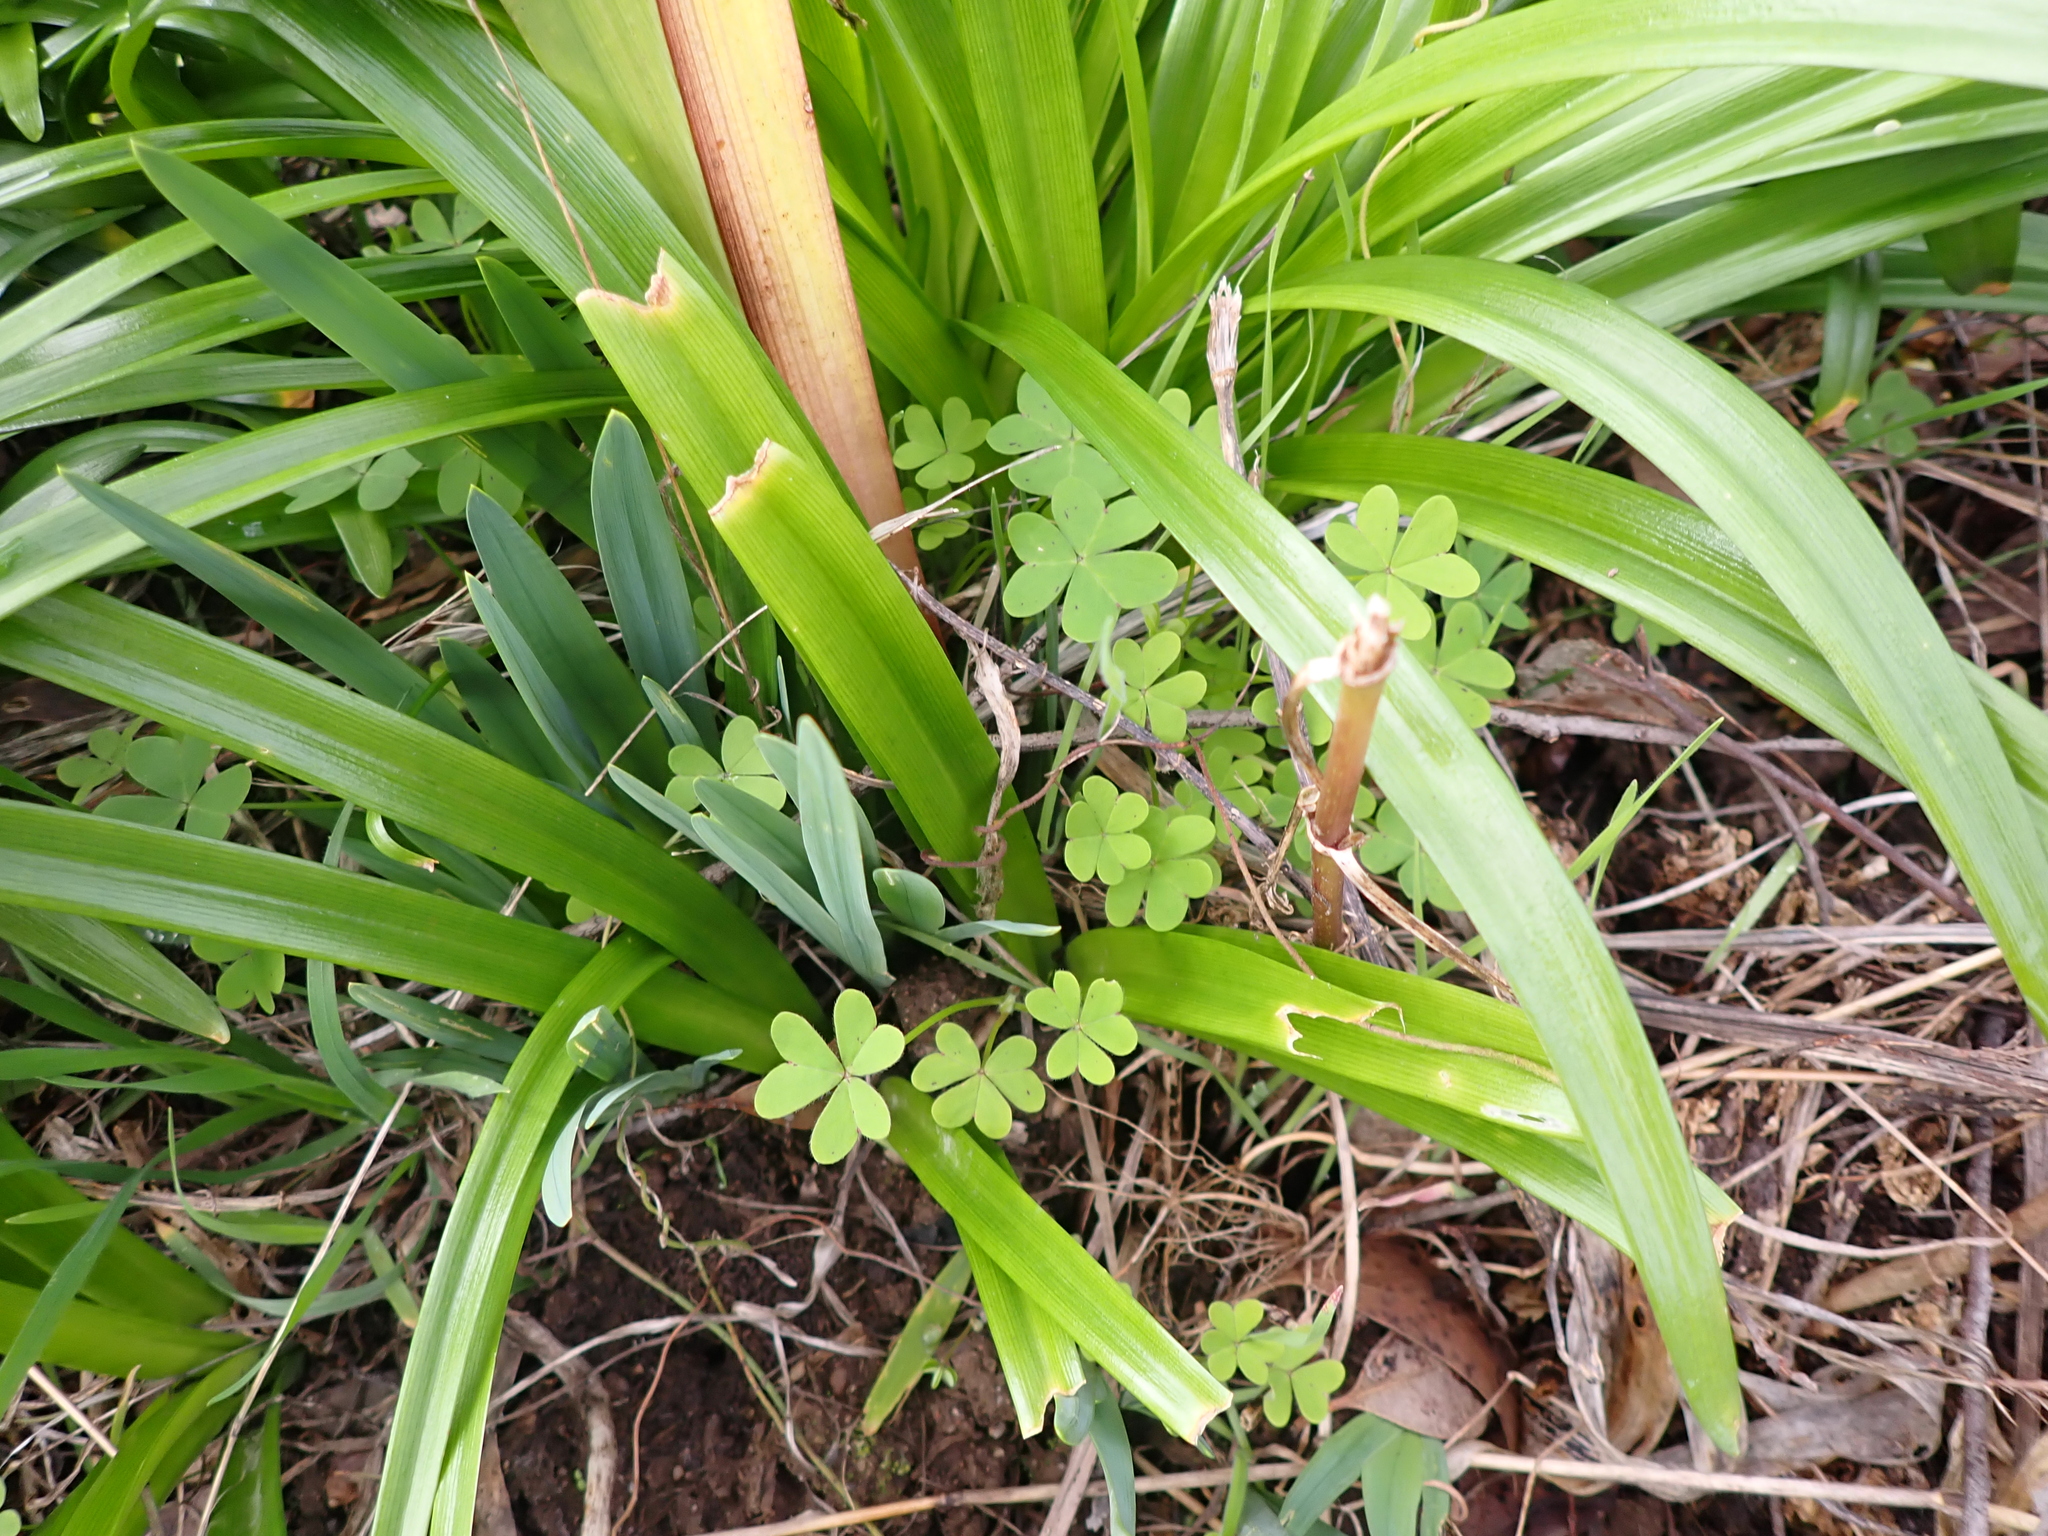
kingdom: Plantae
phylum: Tracheophyta
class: Magnoliopsida
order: Oxalidales
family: Oxalidaceae
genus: Oxalis
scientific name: Oxalis pes-caprae
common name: Bermuda-buttercup
